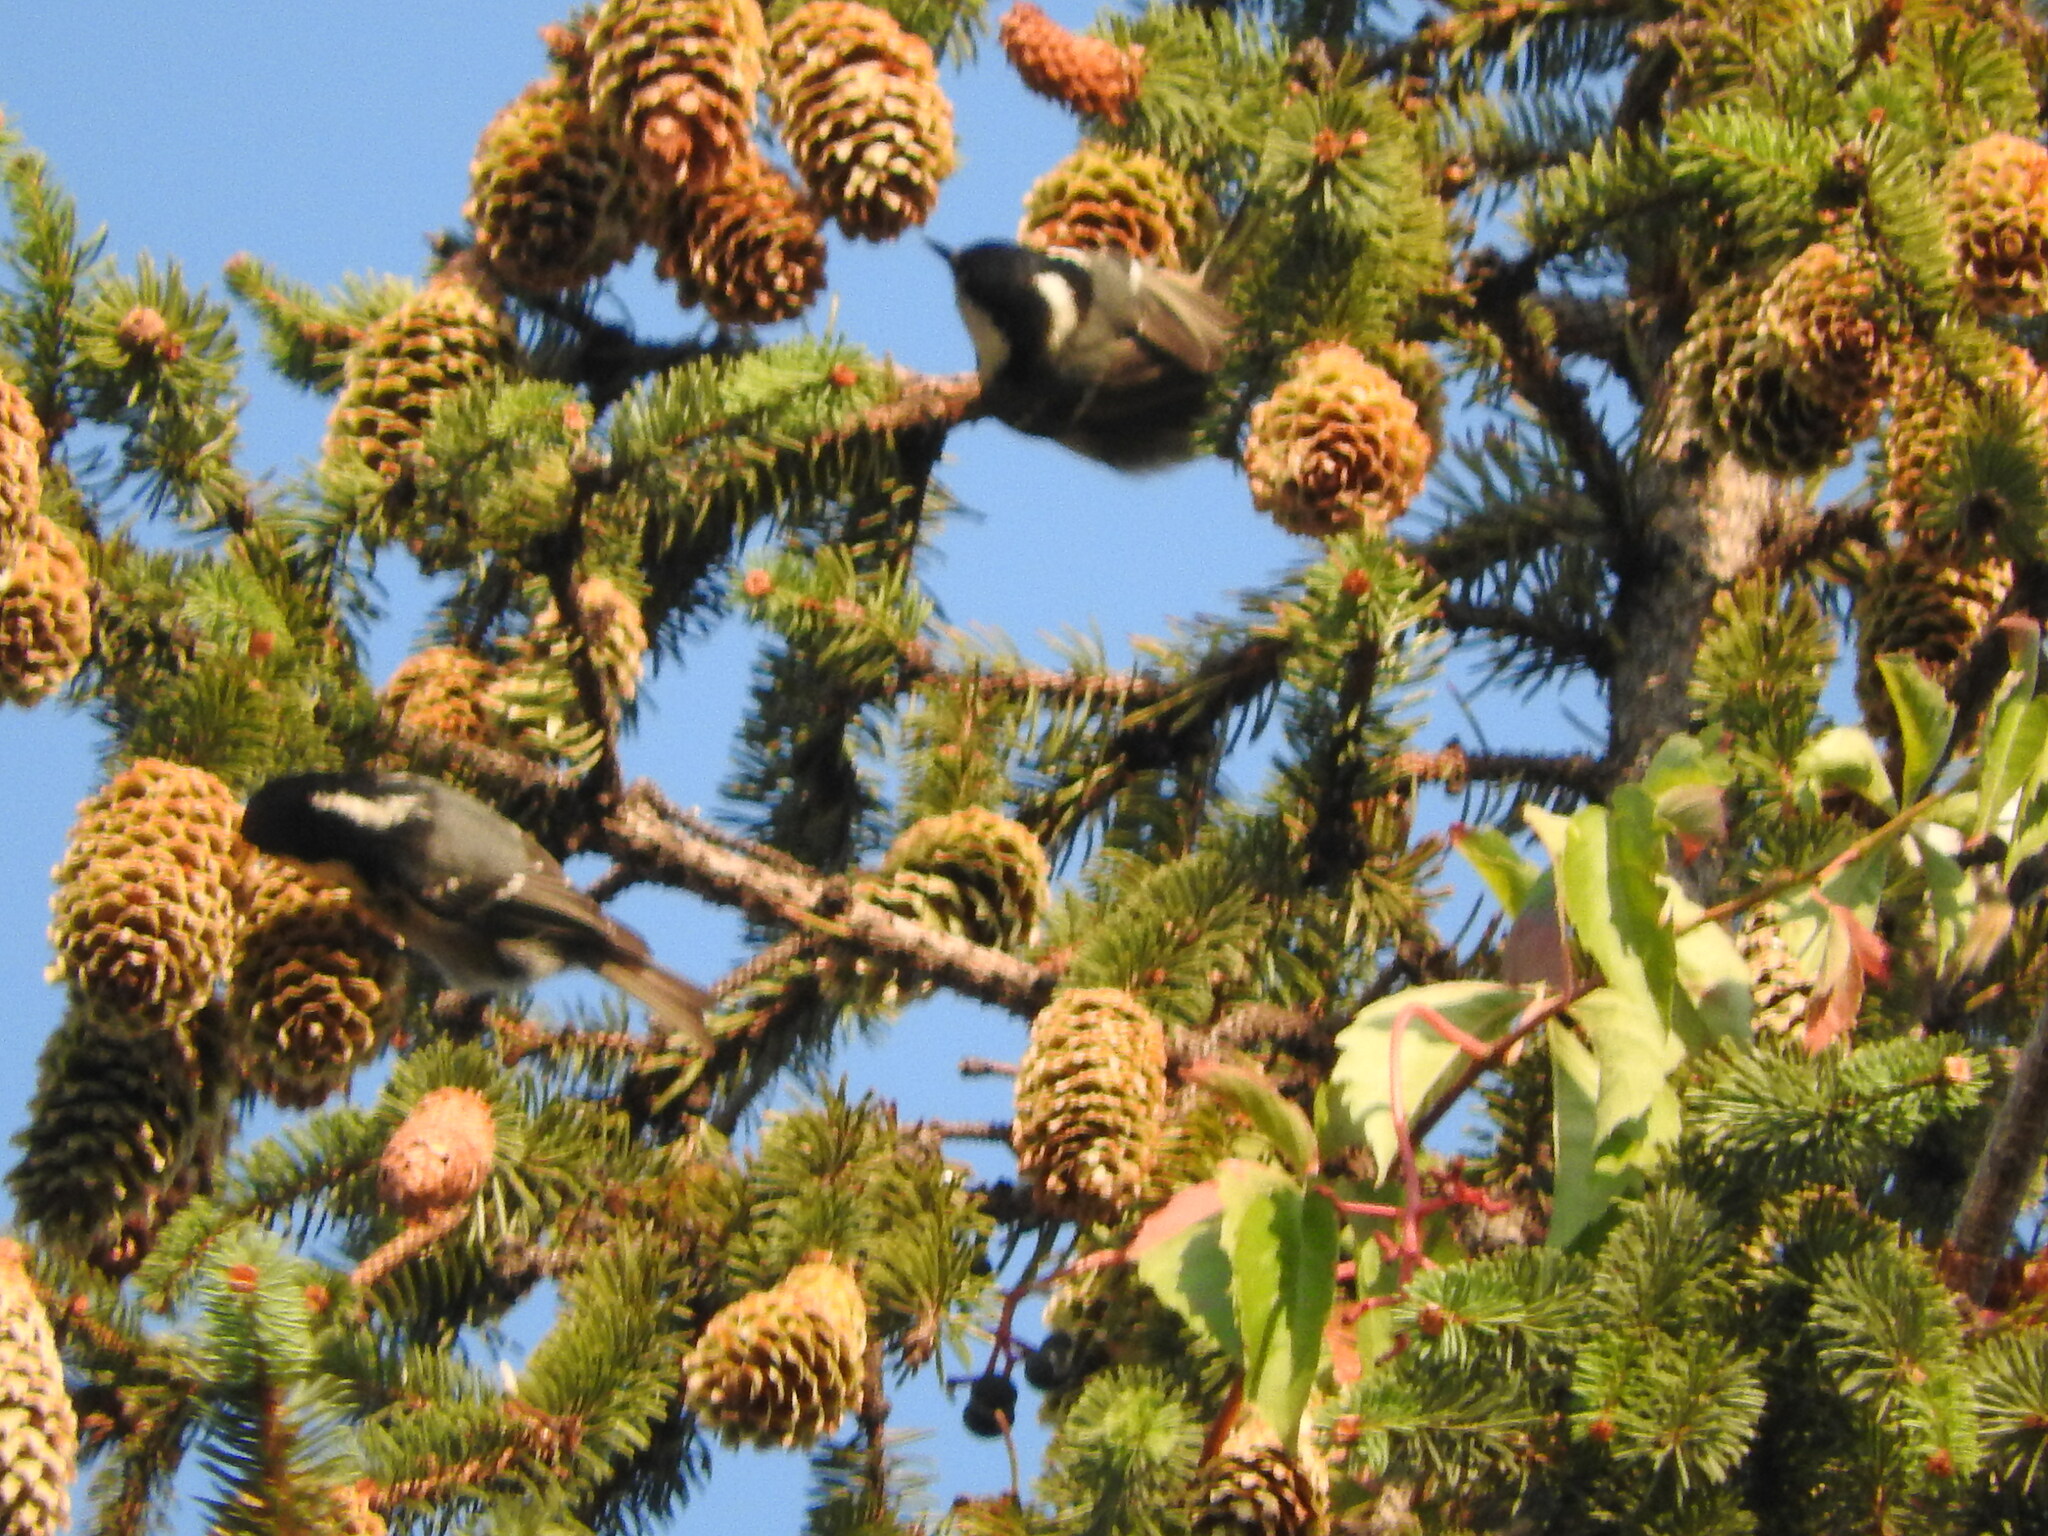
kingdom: Animalia
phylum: Chordata
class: Aves
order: Passeriformes
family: Paridae
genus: Periparus
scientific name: Periparus ater
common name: Coal tit
